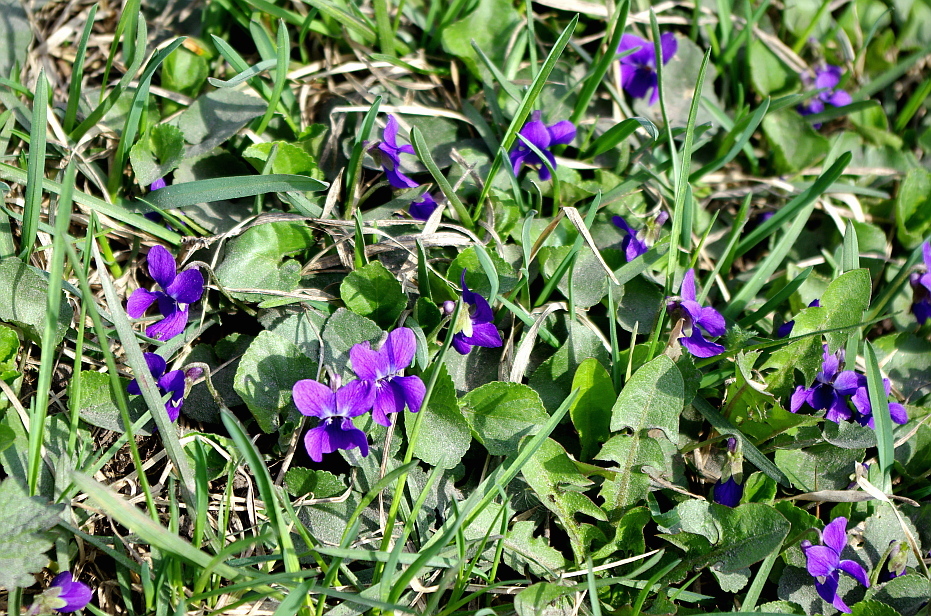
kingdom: Plantae
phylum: Tracheophyta
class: Magnoliopsida
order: Malpighiales
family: Violaceae
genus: Viola
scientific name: Viola odorata
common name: Sweet violet
